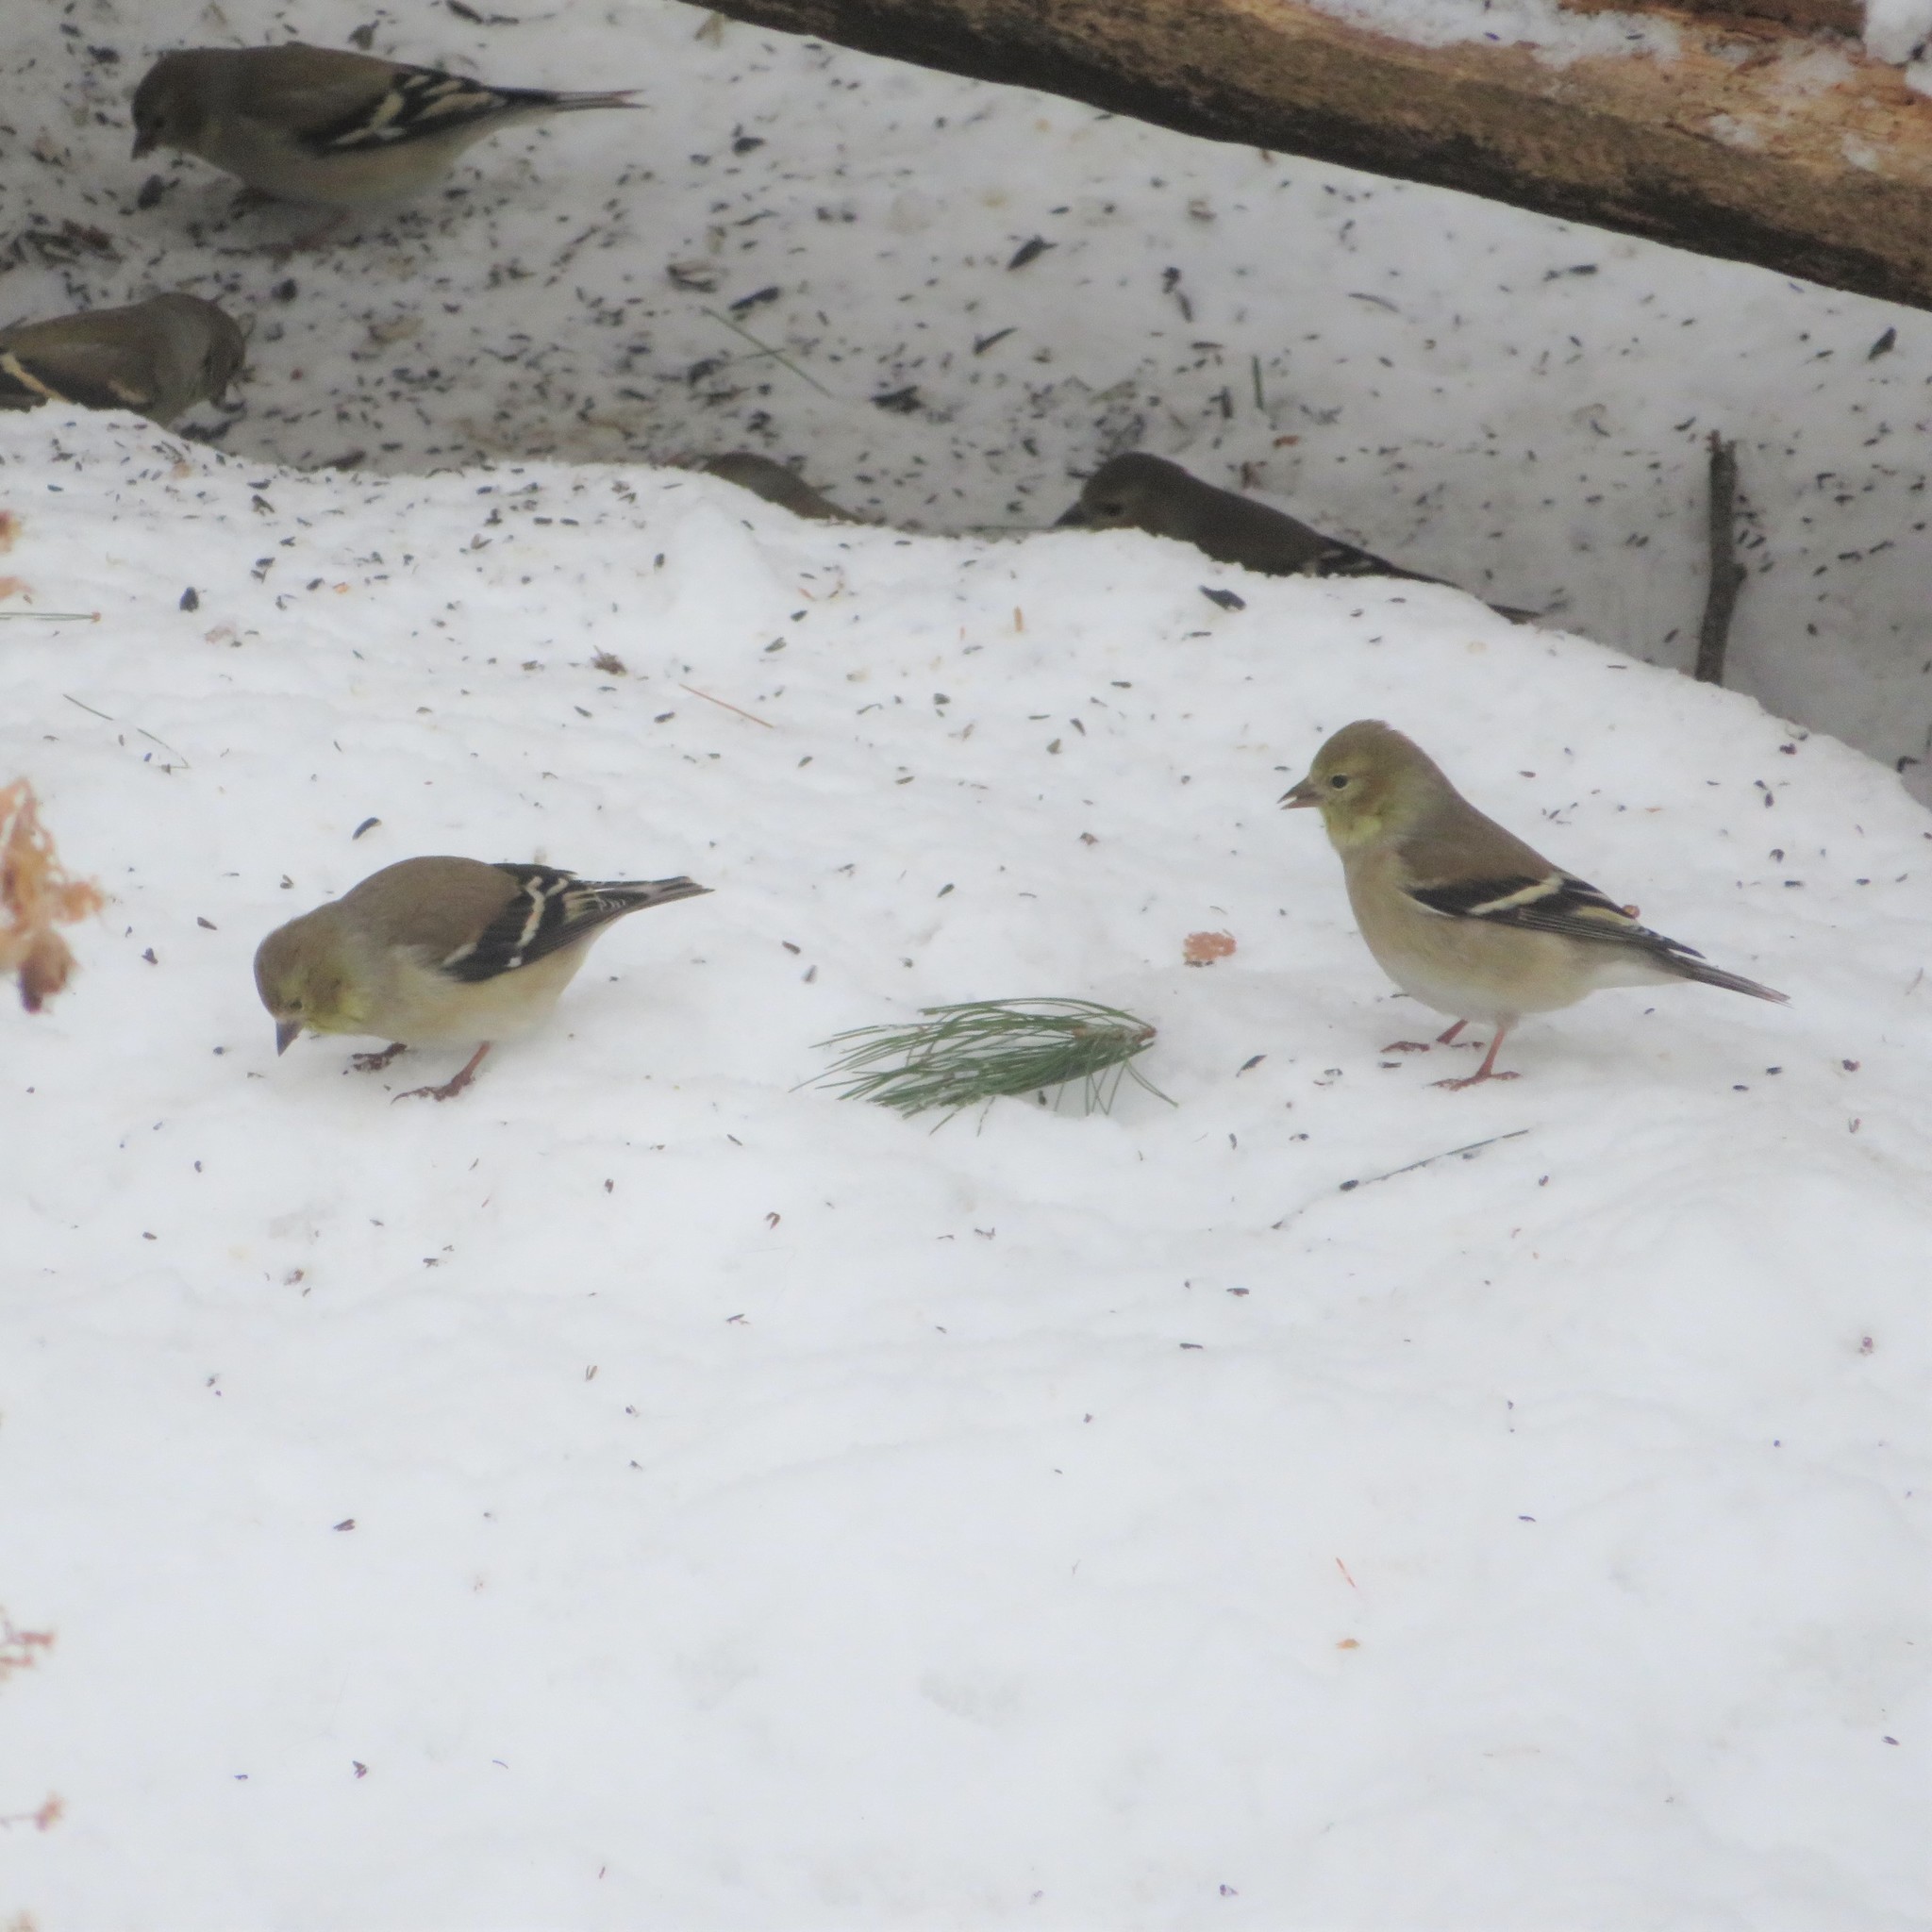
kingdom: Animalia
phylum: Chordata
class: Aves
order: Passeriformes
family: Fringillidae
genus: Spinus
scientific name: Spinus tristis
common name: American goldfinch
